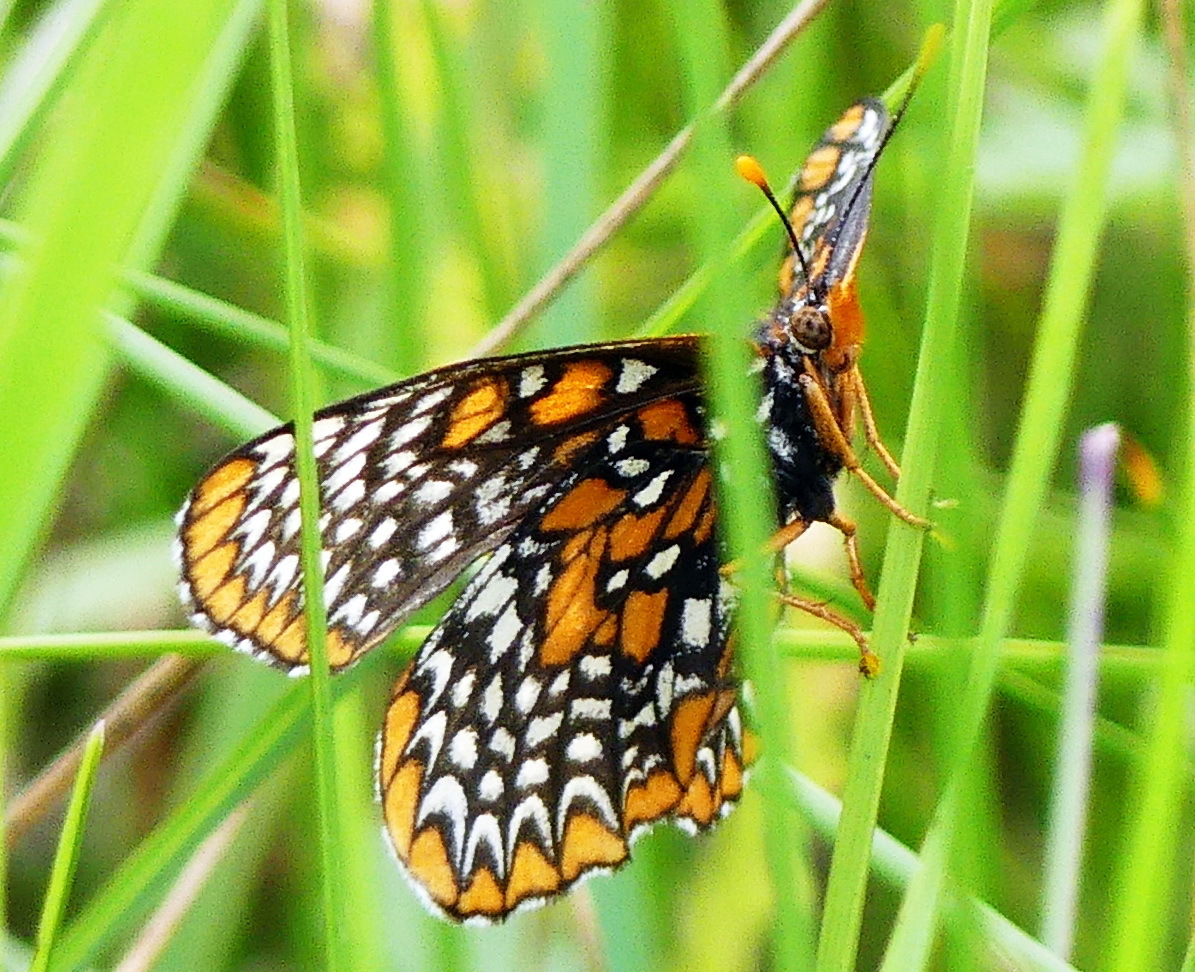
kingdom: Animalia
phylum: Arthropoda
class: Insecta
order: Lepidoptera
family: Nymphalidae
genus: Euphydryas
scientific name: Euphydryas phaeton
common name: Baltimore checkerspot
